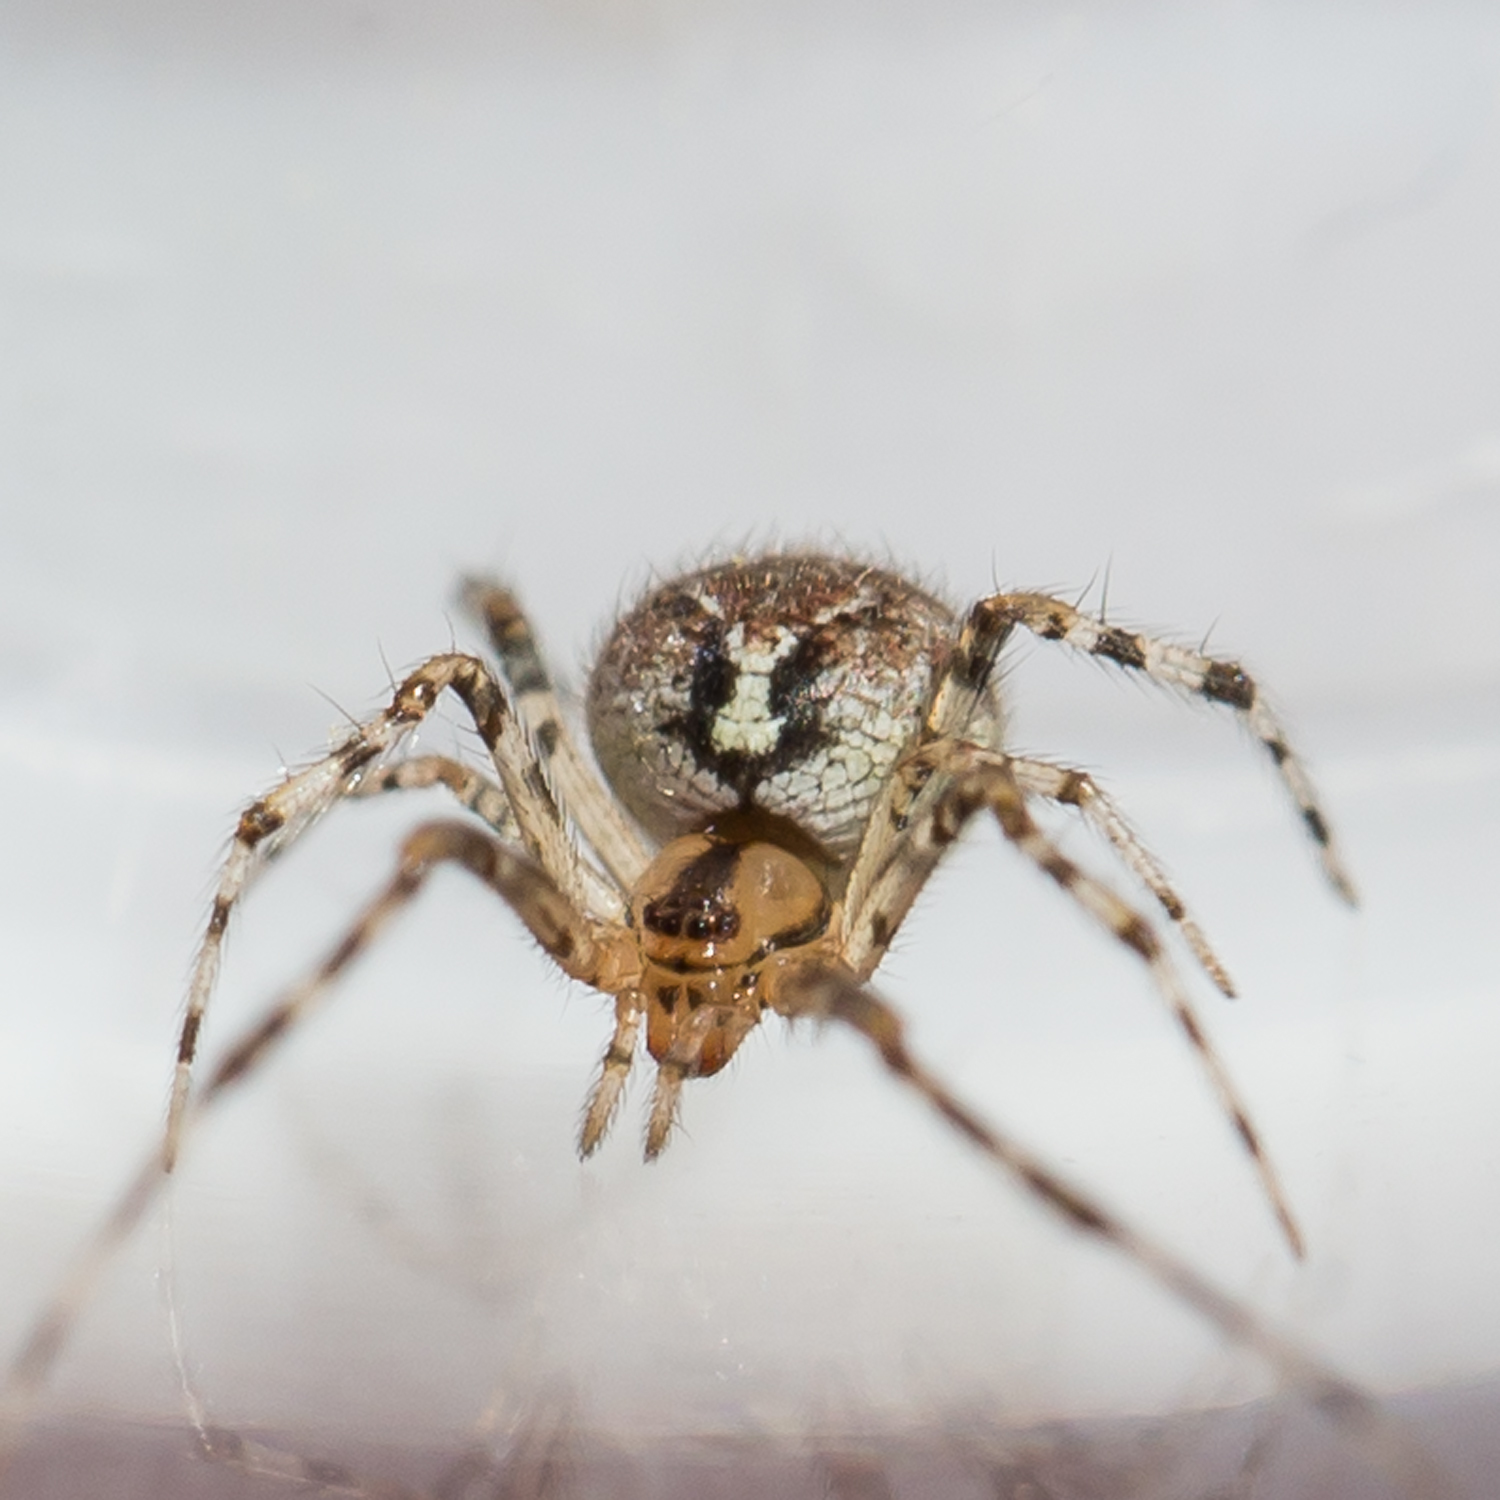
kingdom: Animalia
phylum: Arthropoda
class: Arachnida
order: Araneae
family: Theridiidae
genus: Theridion
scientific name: Theridion murarium
